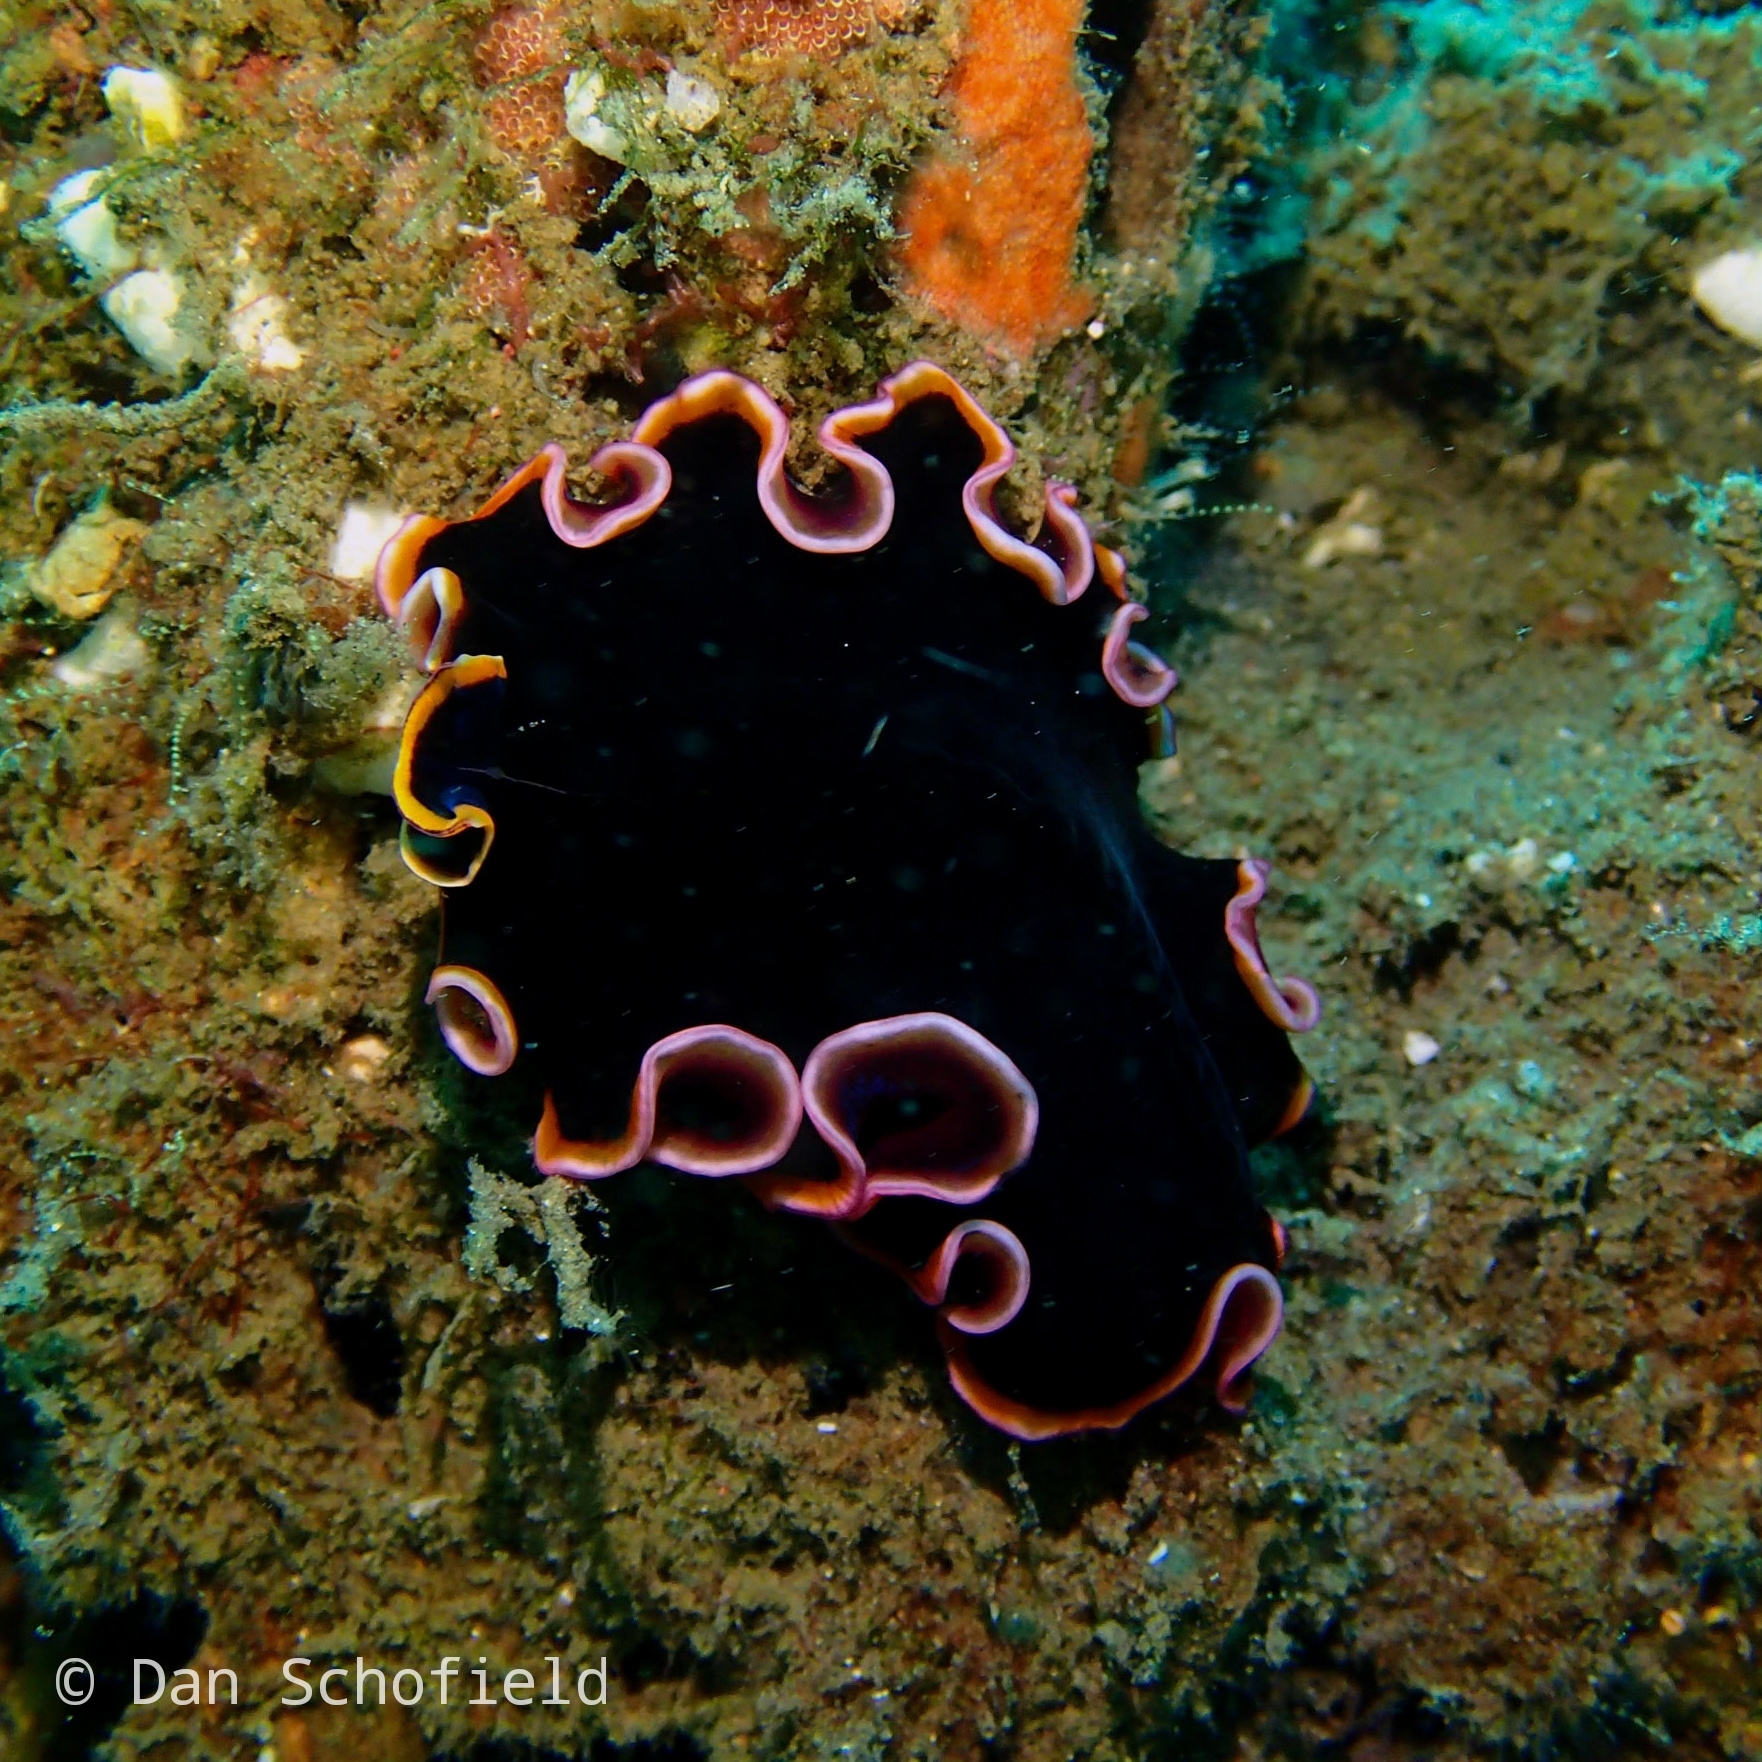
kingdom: Animalia
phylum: Platyhelminthes
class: Turbellaria
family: Pseudocerotidae
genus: Pseudobiceros
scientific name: Pseudobiceros gloriosus
